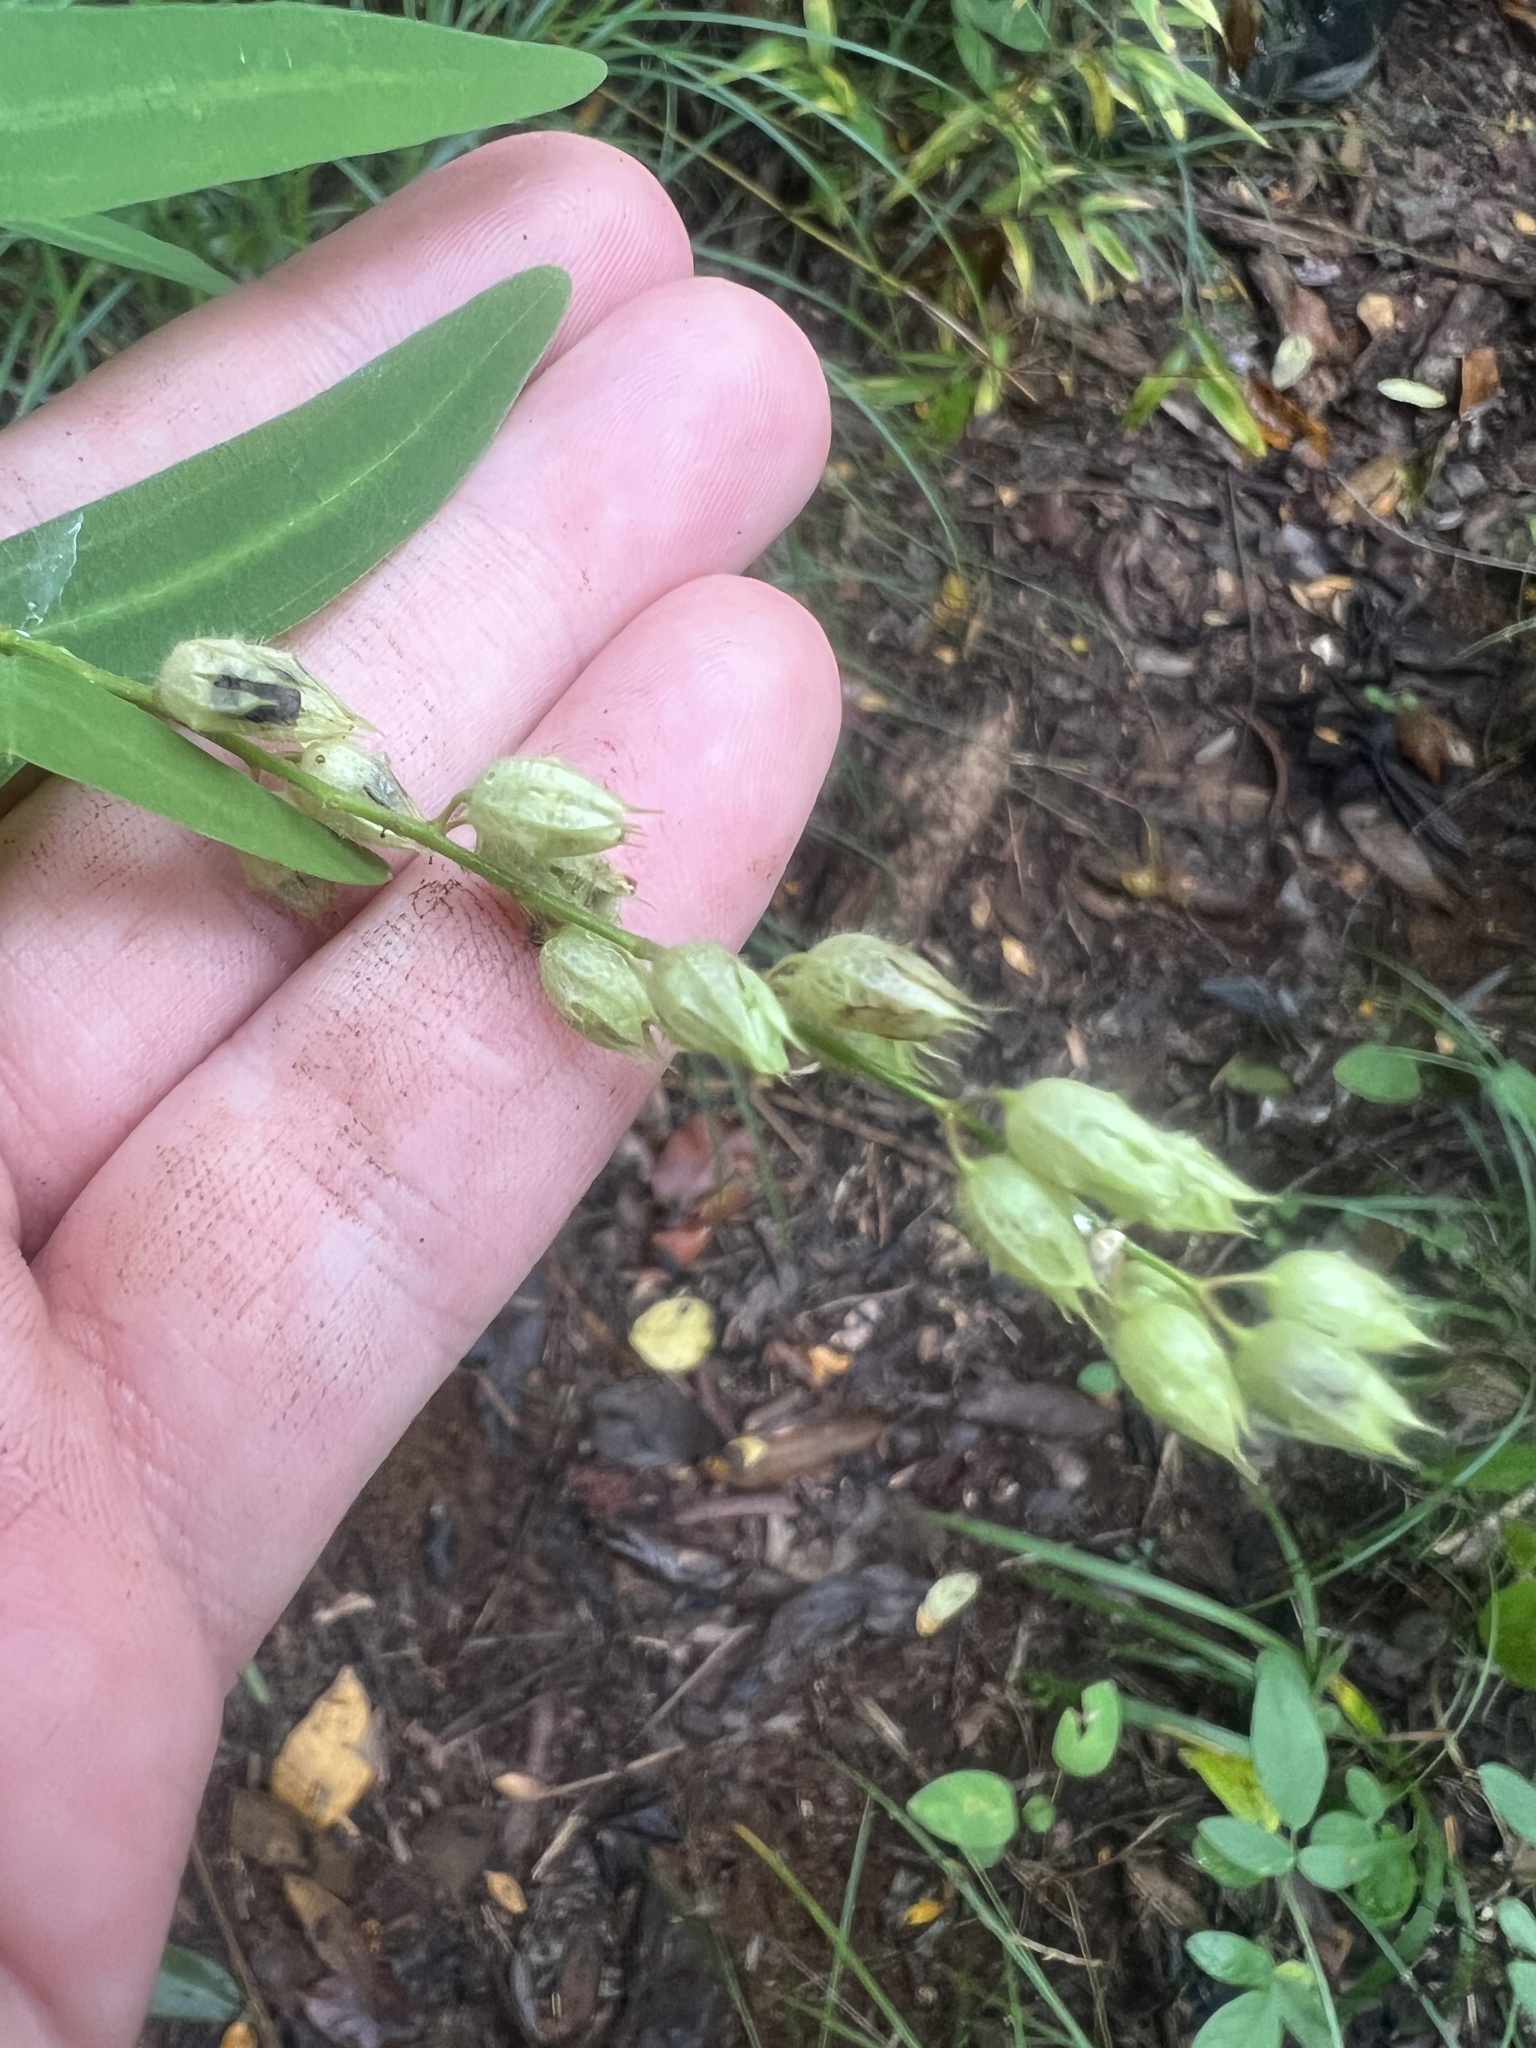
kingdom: Plantae
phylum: Tracheophyta
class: Magnoliopsida
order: Fabales
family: Fabaceae
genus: Christia
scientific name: Christia vespertilionis
